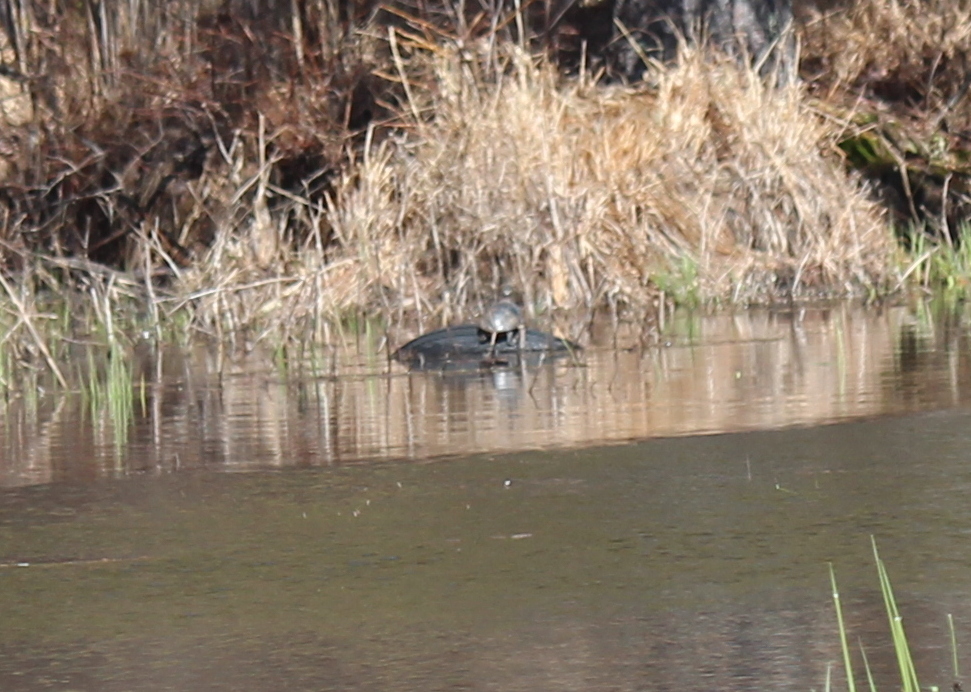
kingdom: Animalia
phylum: Chordata
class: Testudines
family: Emydidae
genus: Chrysemys
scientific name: Chrysemys picta
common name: Painted turtle
